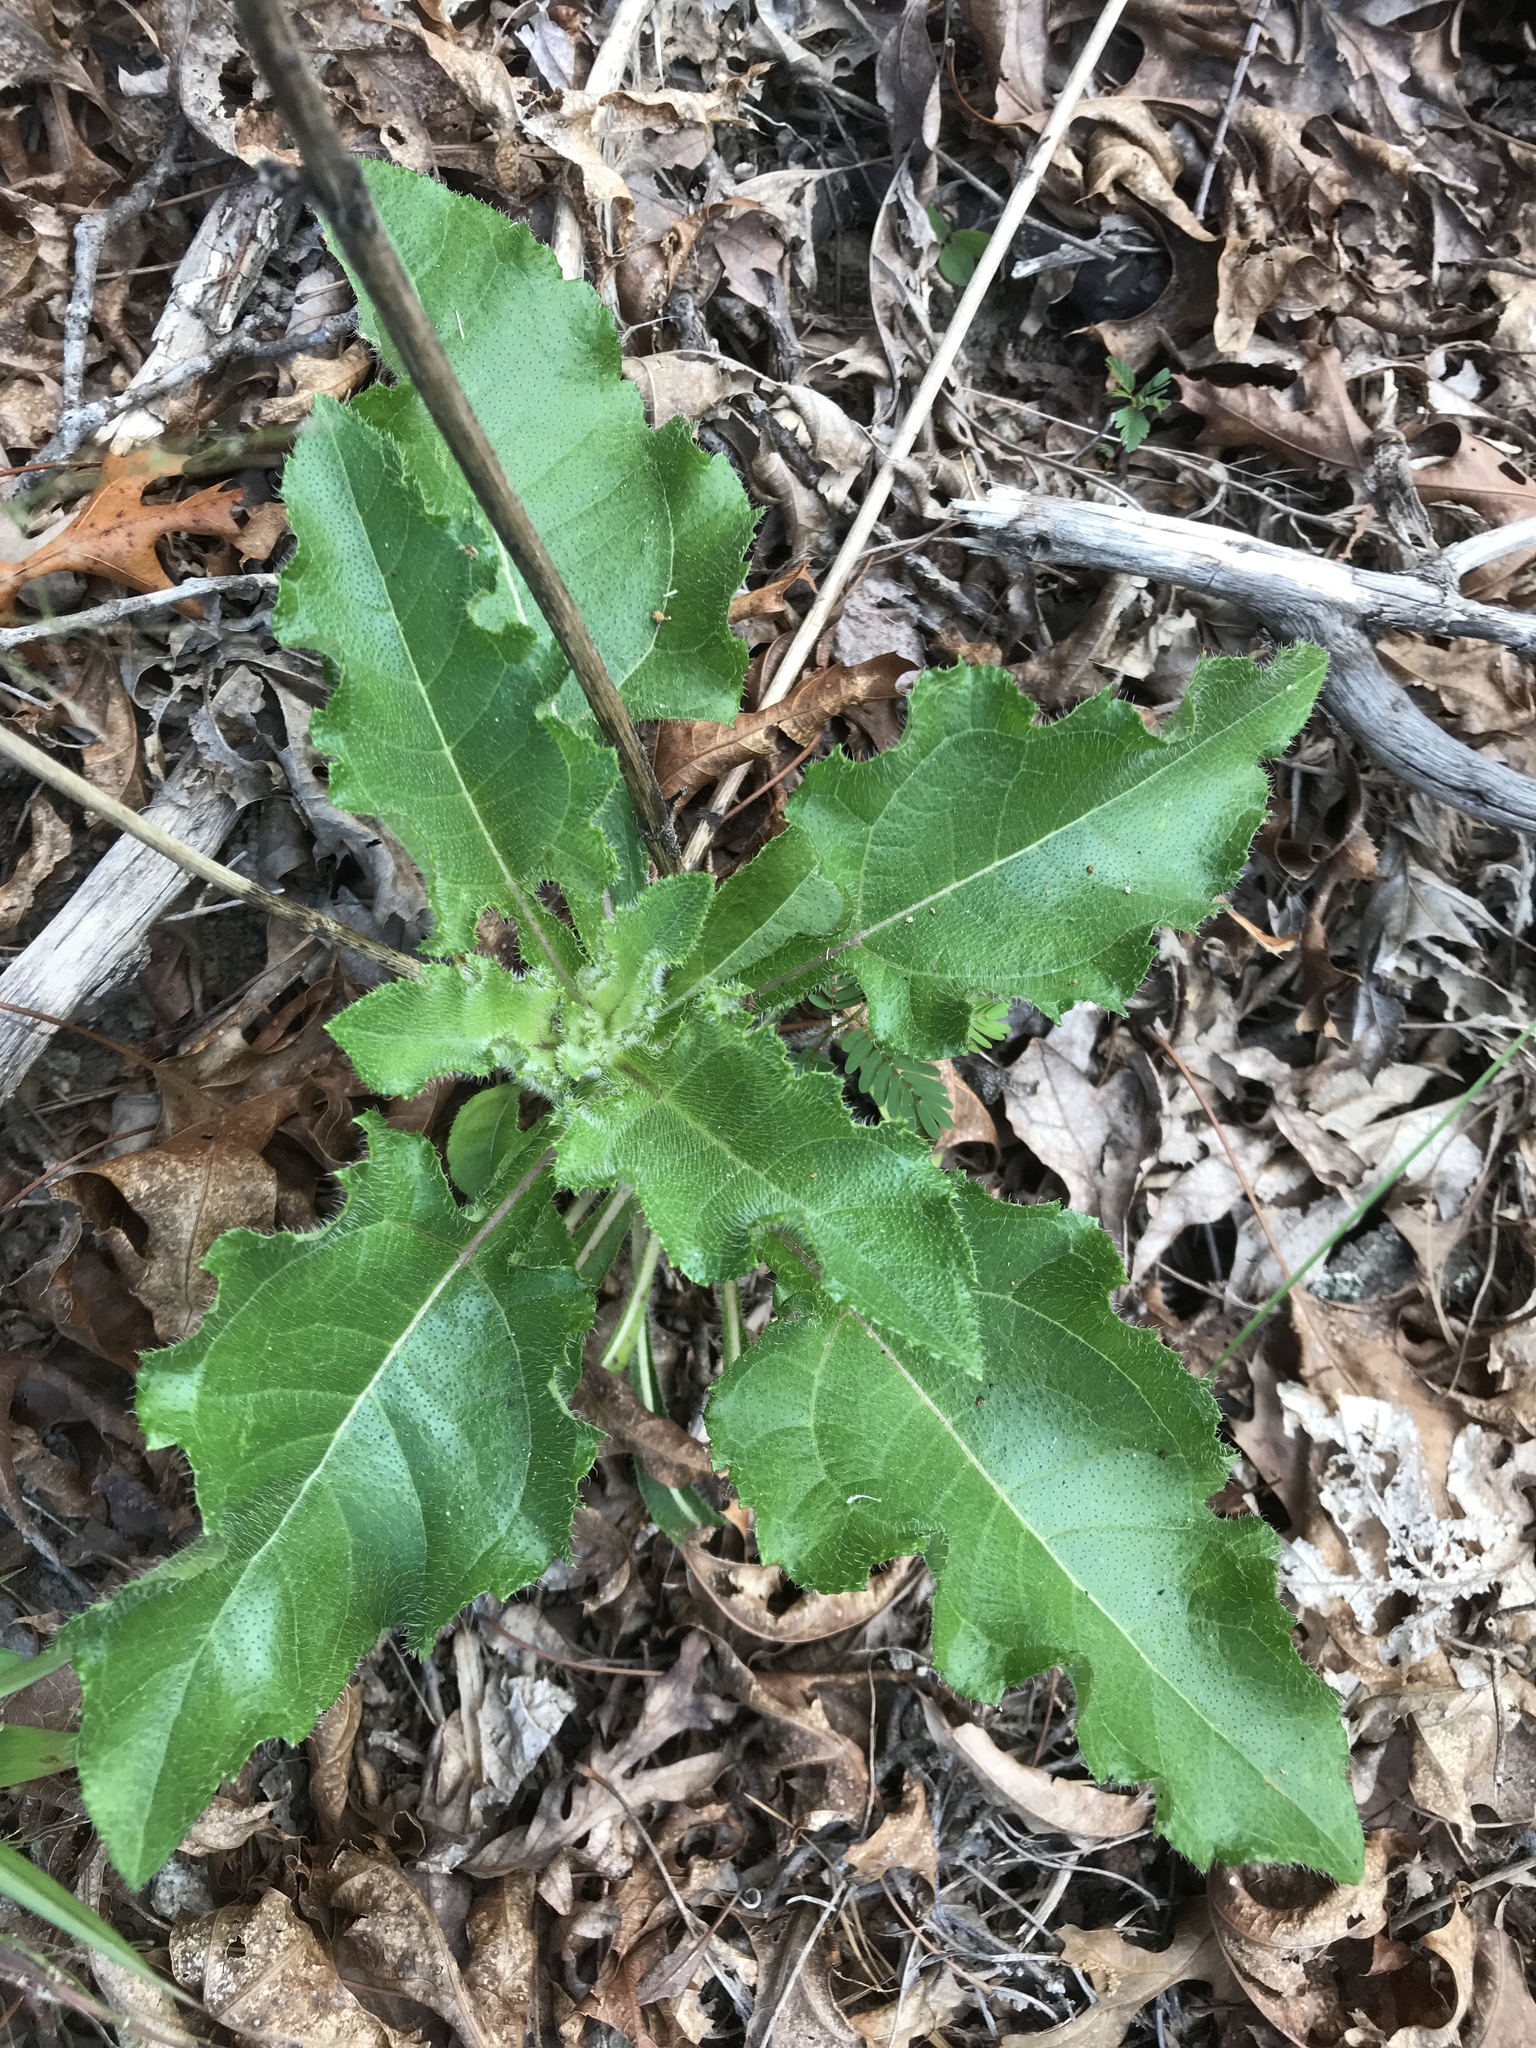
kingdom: Plantae
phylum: Tracheophyta
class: Magnoliopsida
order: Asterales
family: Asteraceae
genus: Helianthus
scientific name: Helianthus atrorubens
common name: Dark-eyed sunflower
